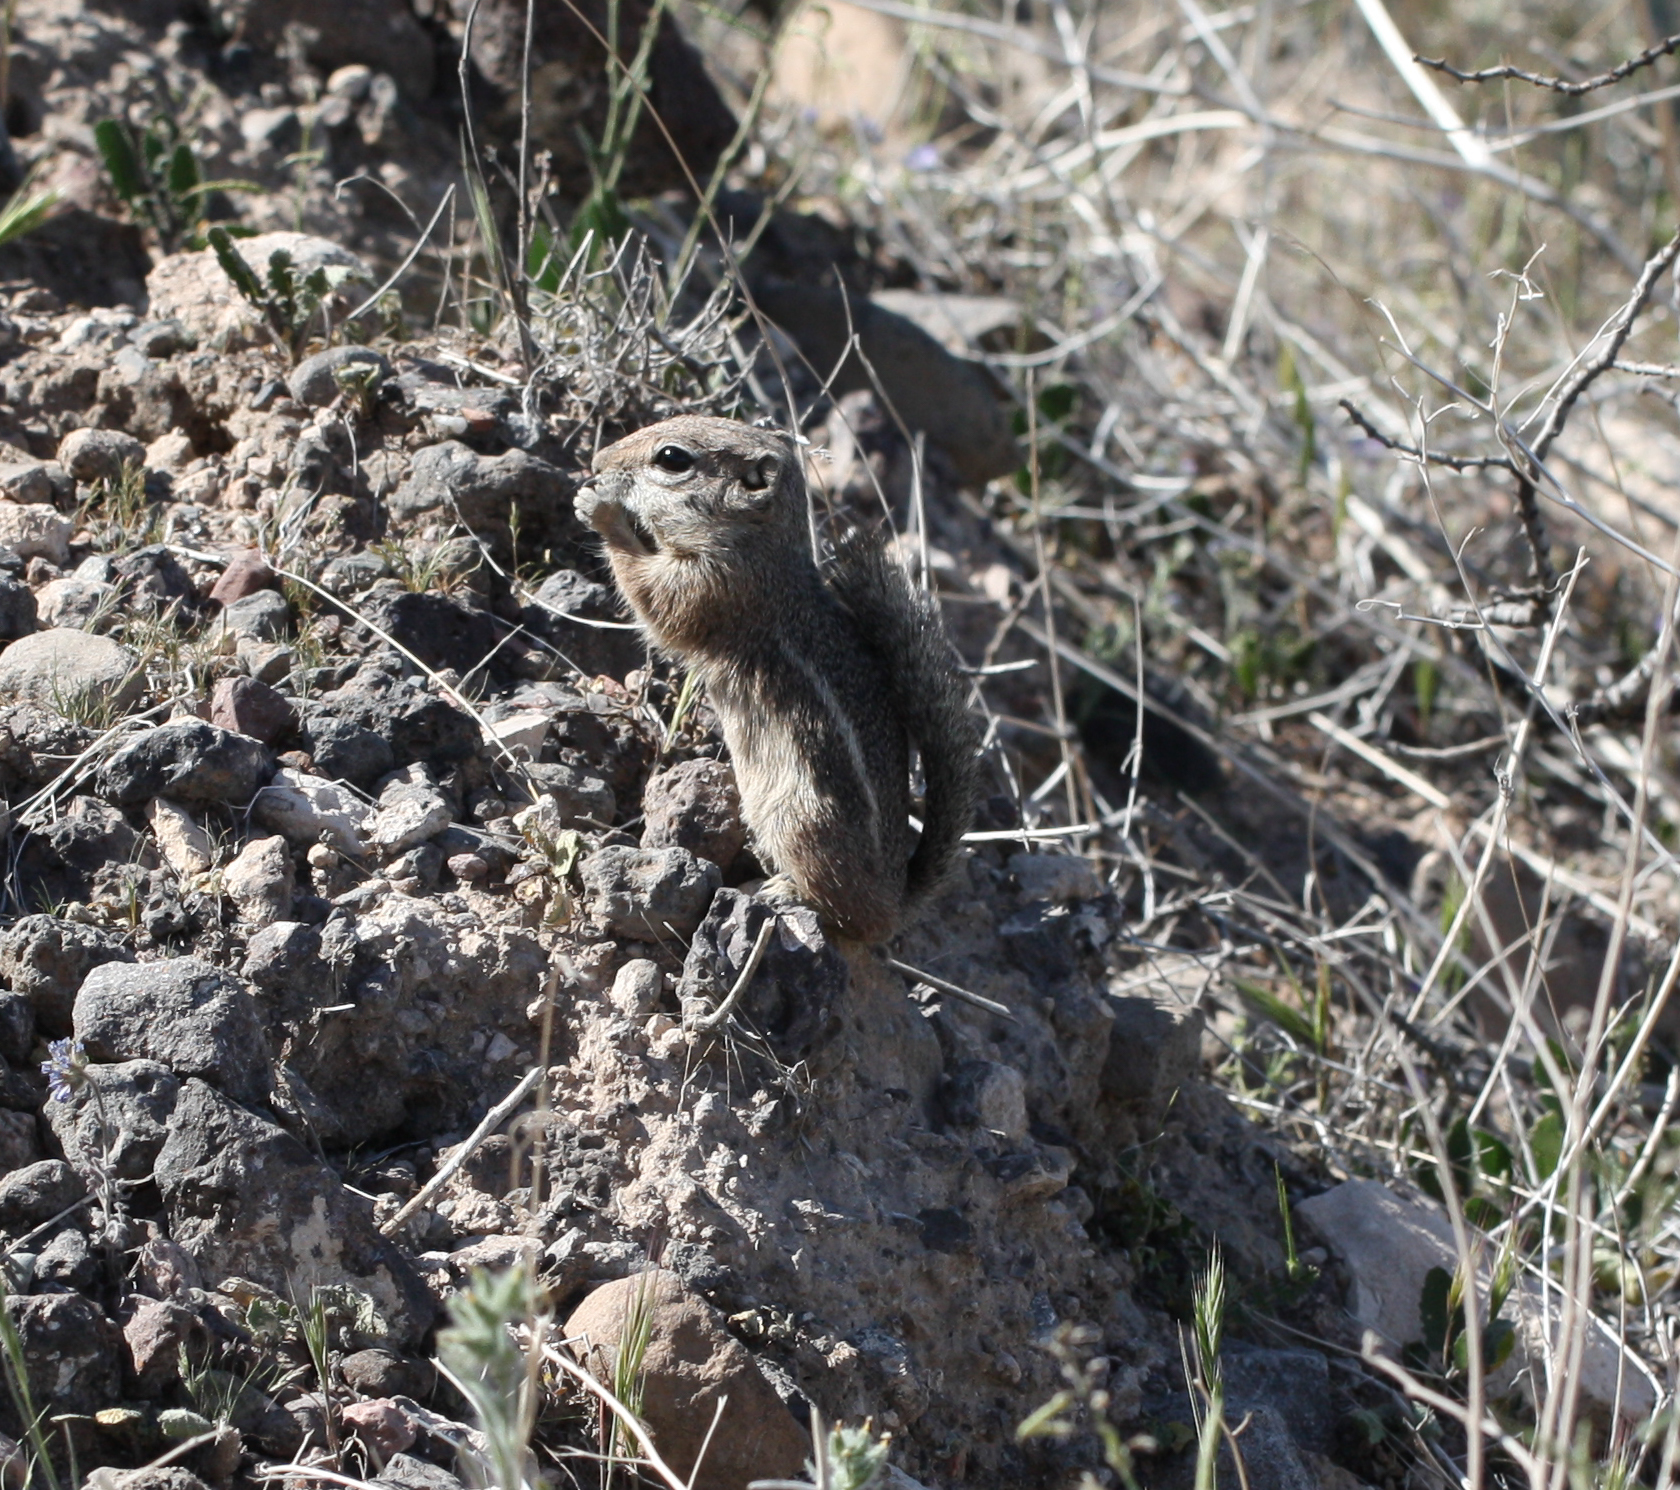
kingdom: Animalia
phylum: Chordata
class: Mammalia
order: Rodentia
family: Sciuridae
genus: Ammospermophilus
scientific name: Ammospermophilus harrisii
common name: Harris's antelope squirrel
